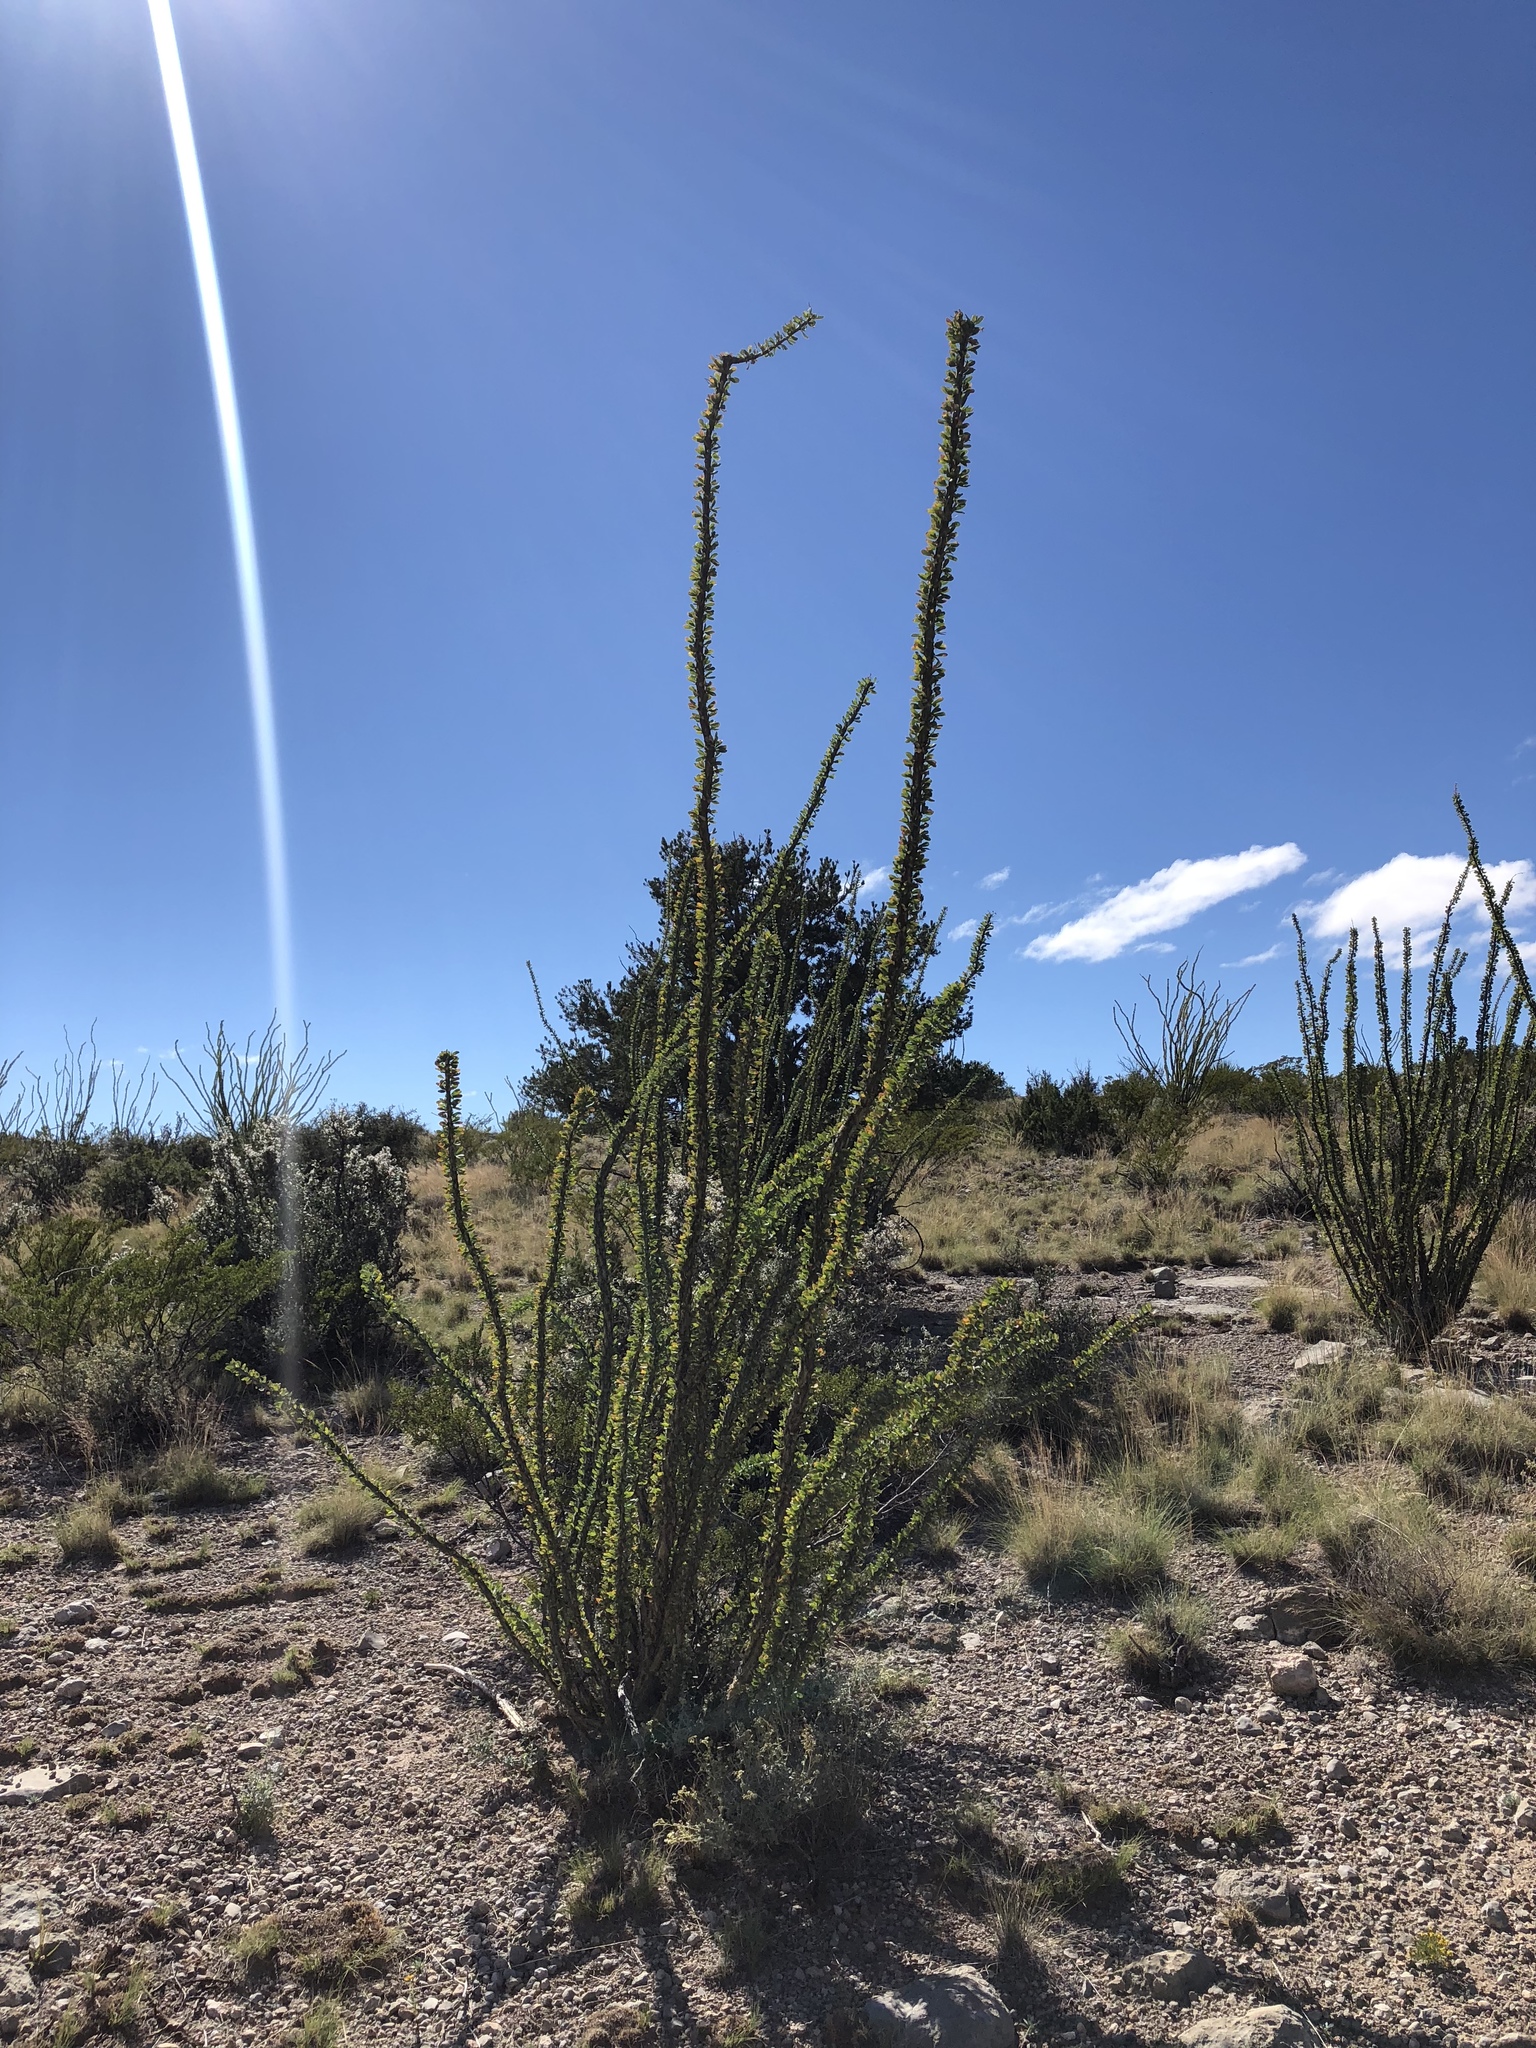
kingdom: Plantae
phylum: Tracheophyta
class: Magnoliopsida
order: Ericales
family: Fouquieriaceae
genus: Fouquieria
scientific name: Fouquieria splendens
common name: Vine-cactus
